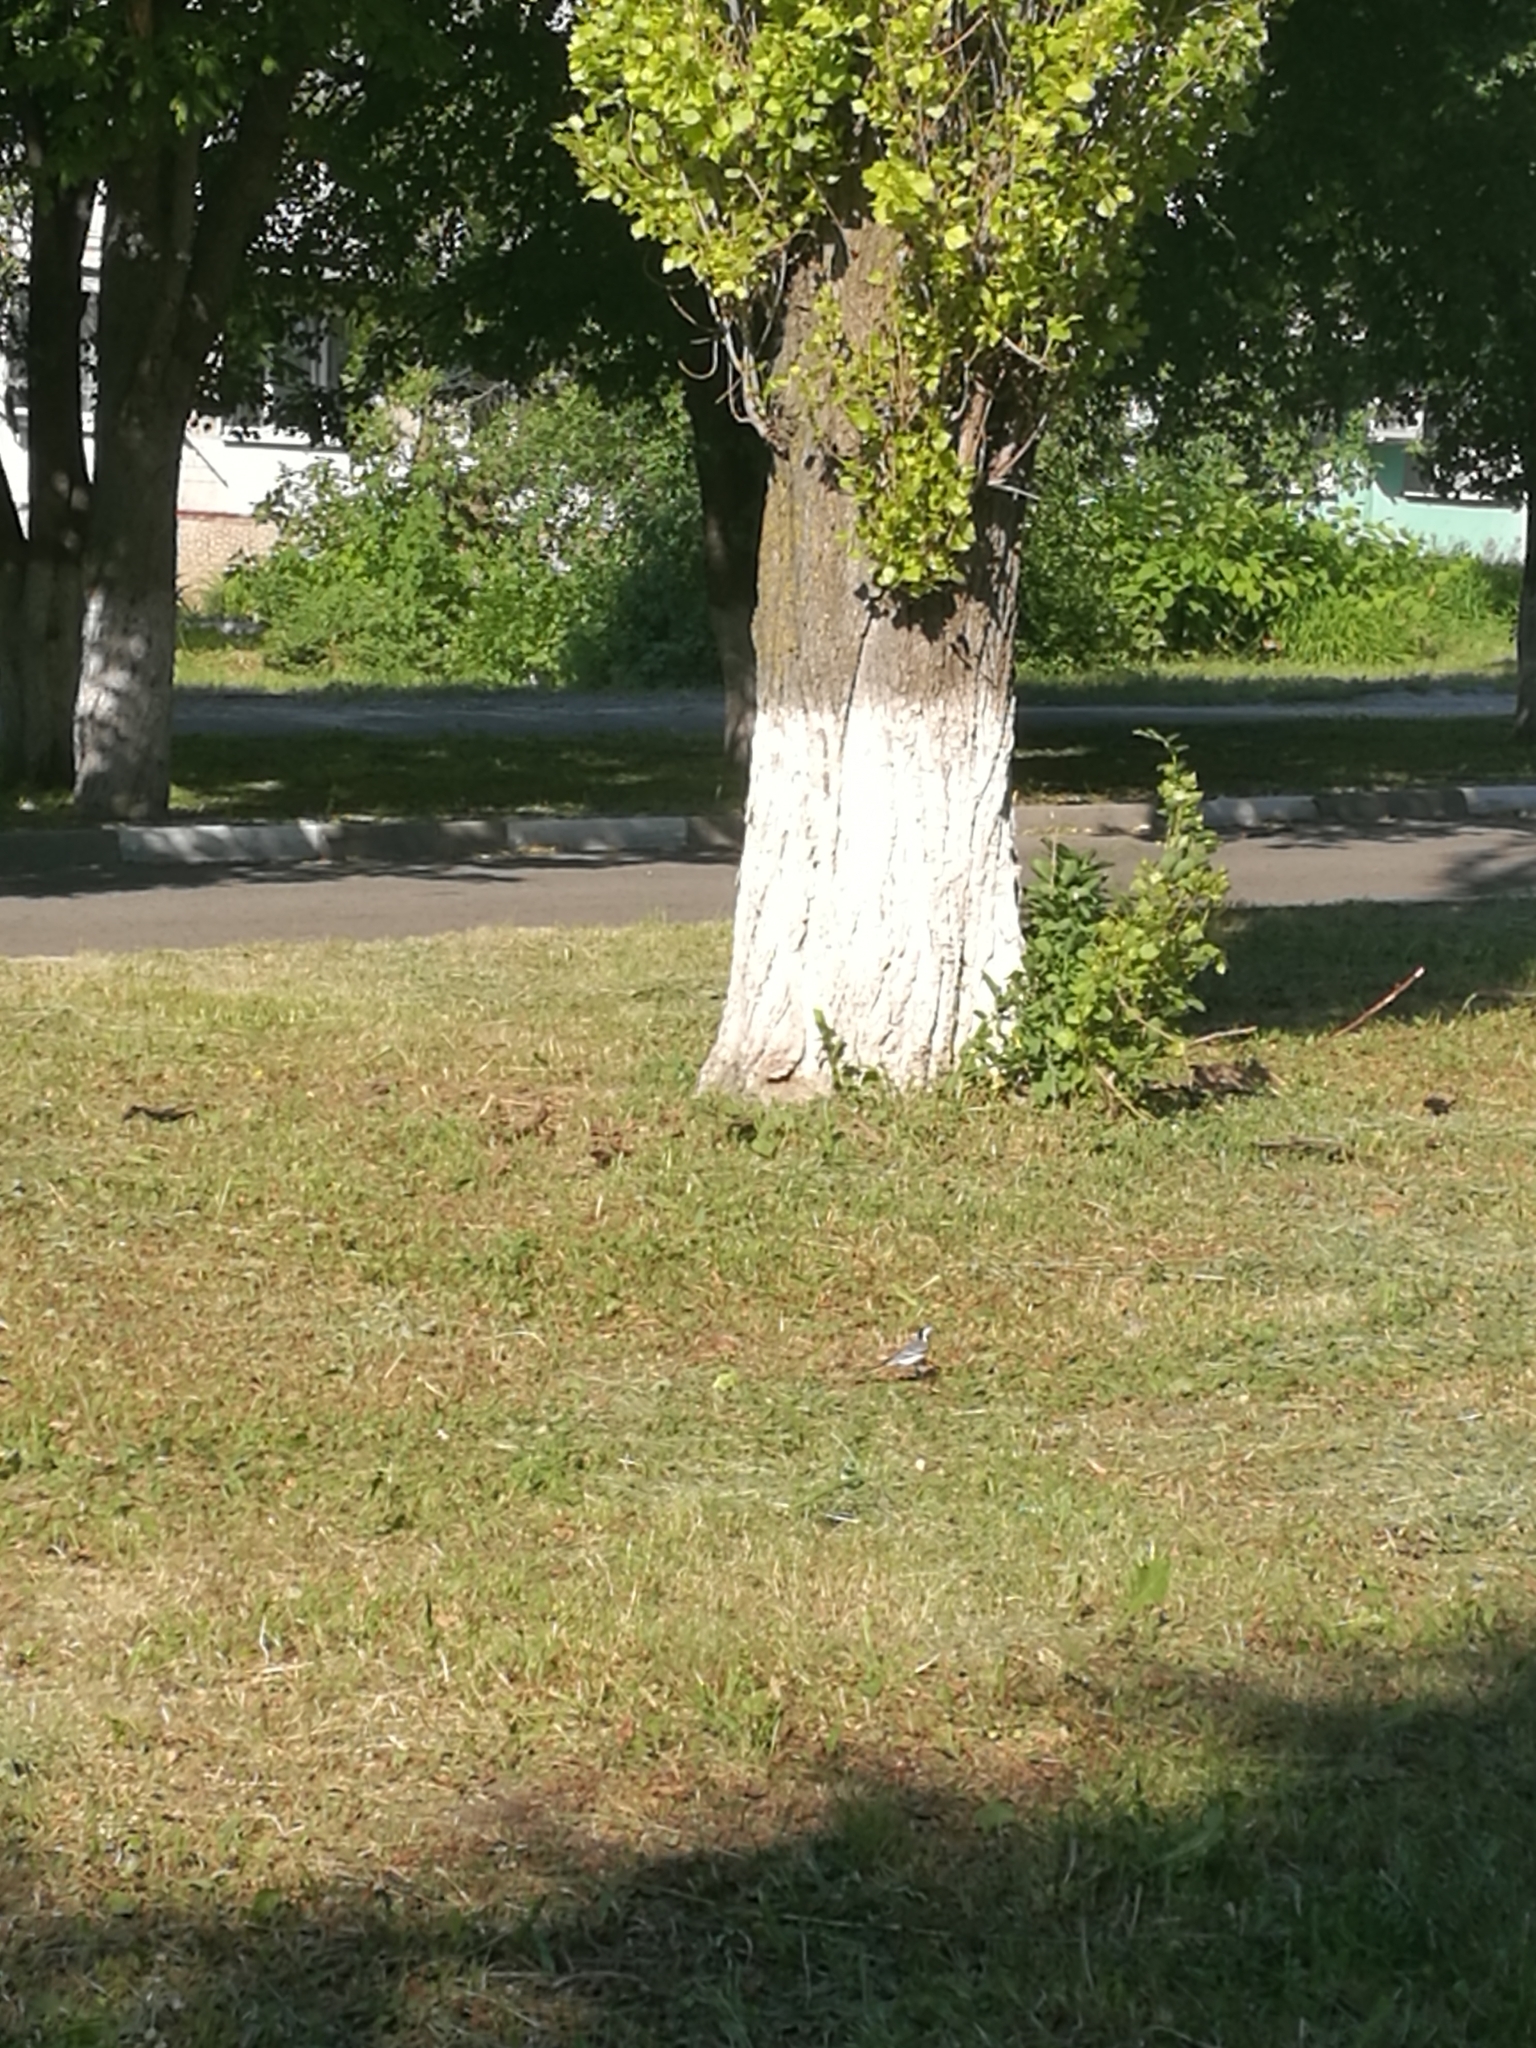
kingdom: Animalia
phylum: Chordata
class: Aves
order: Passeriformes
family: Motacillidae
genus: Motacilla
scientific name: Motacilla alba
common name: White wagtail
